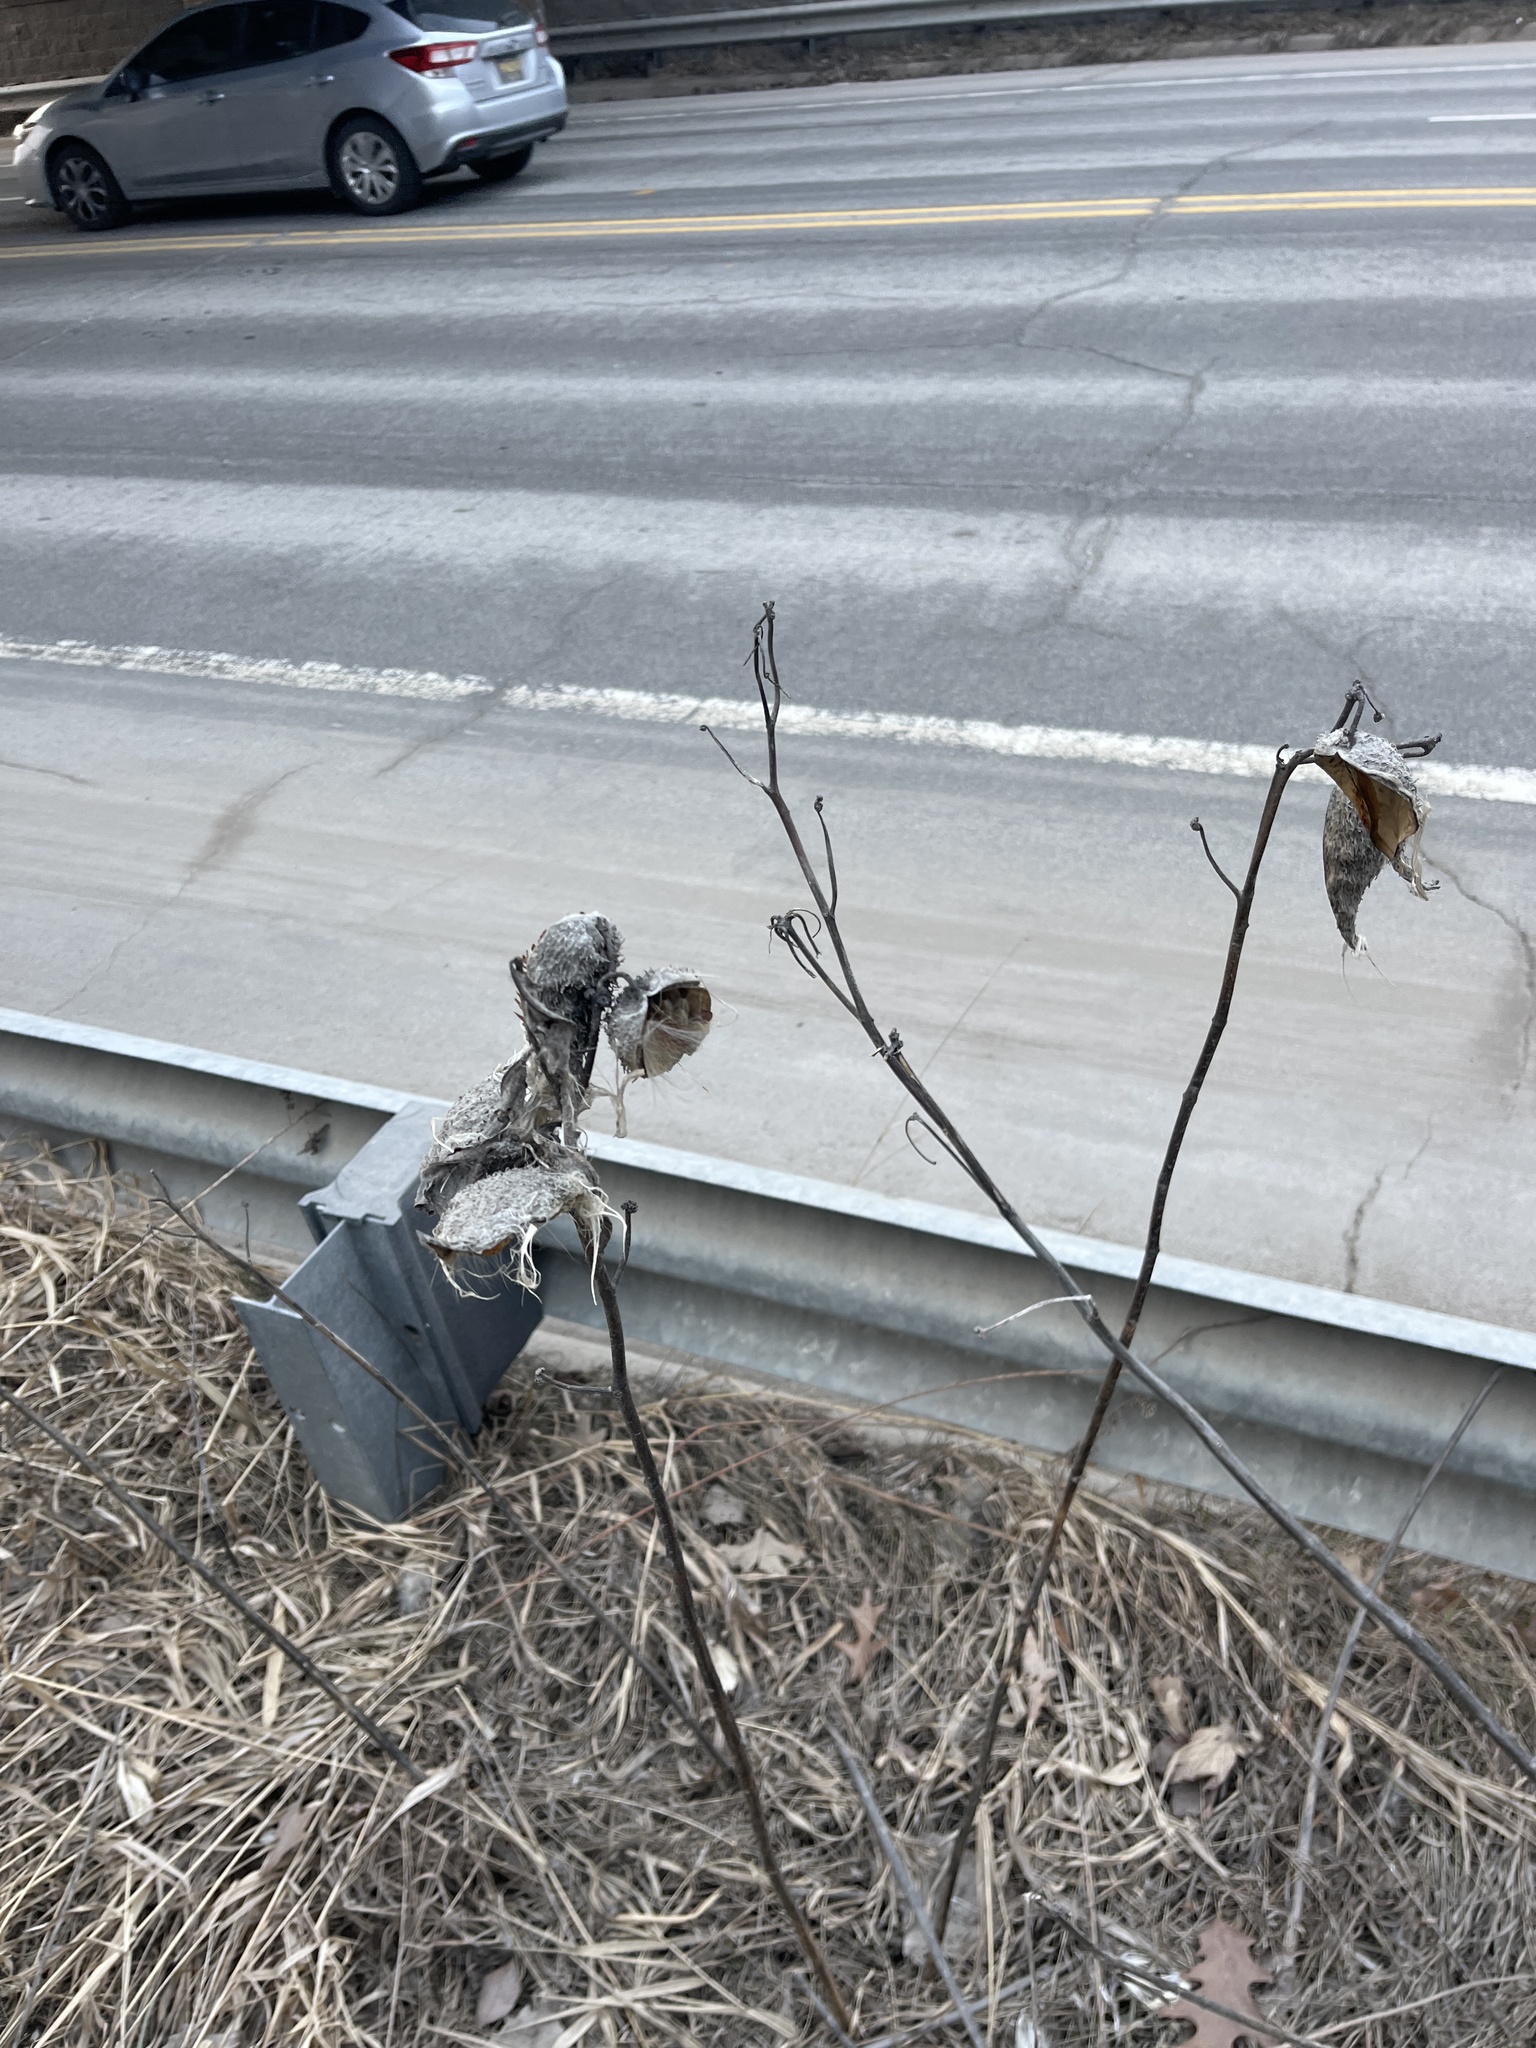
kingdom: Plantae
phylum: Tracheophyta
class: Magnoliopsida
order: Gentianales
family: Apocynaceae
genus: Asclepias
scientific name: Asclepias syriaca
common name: Common milkweed
